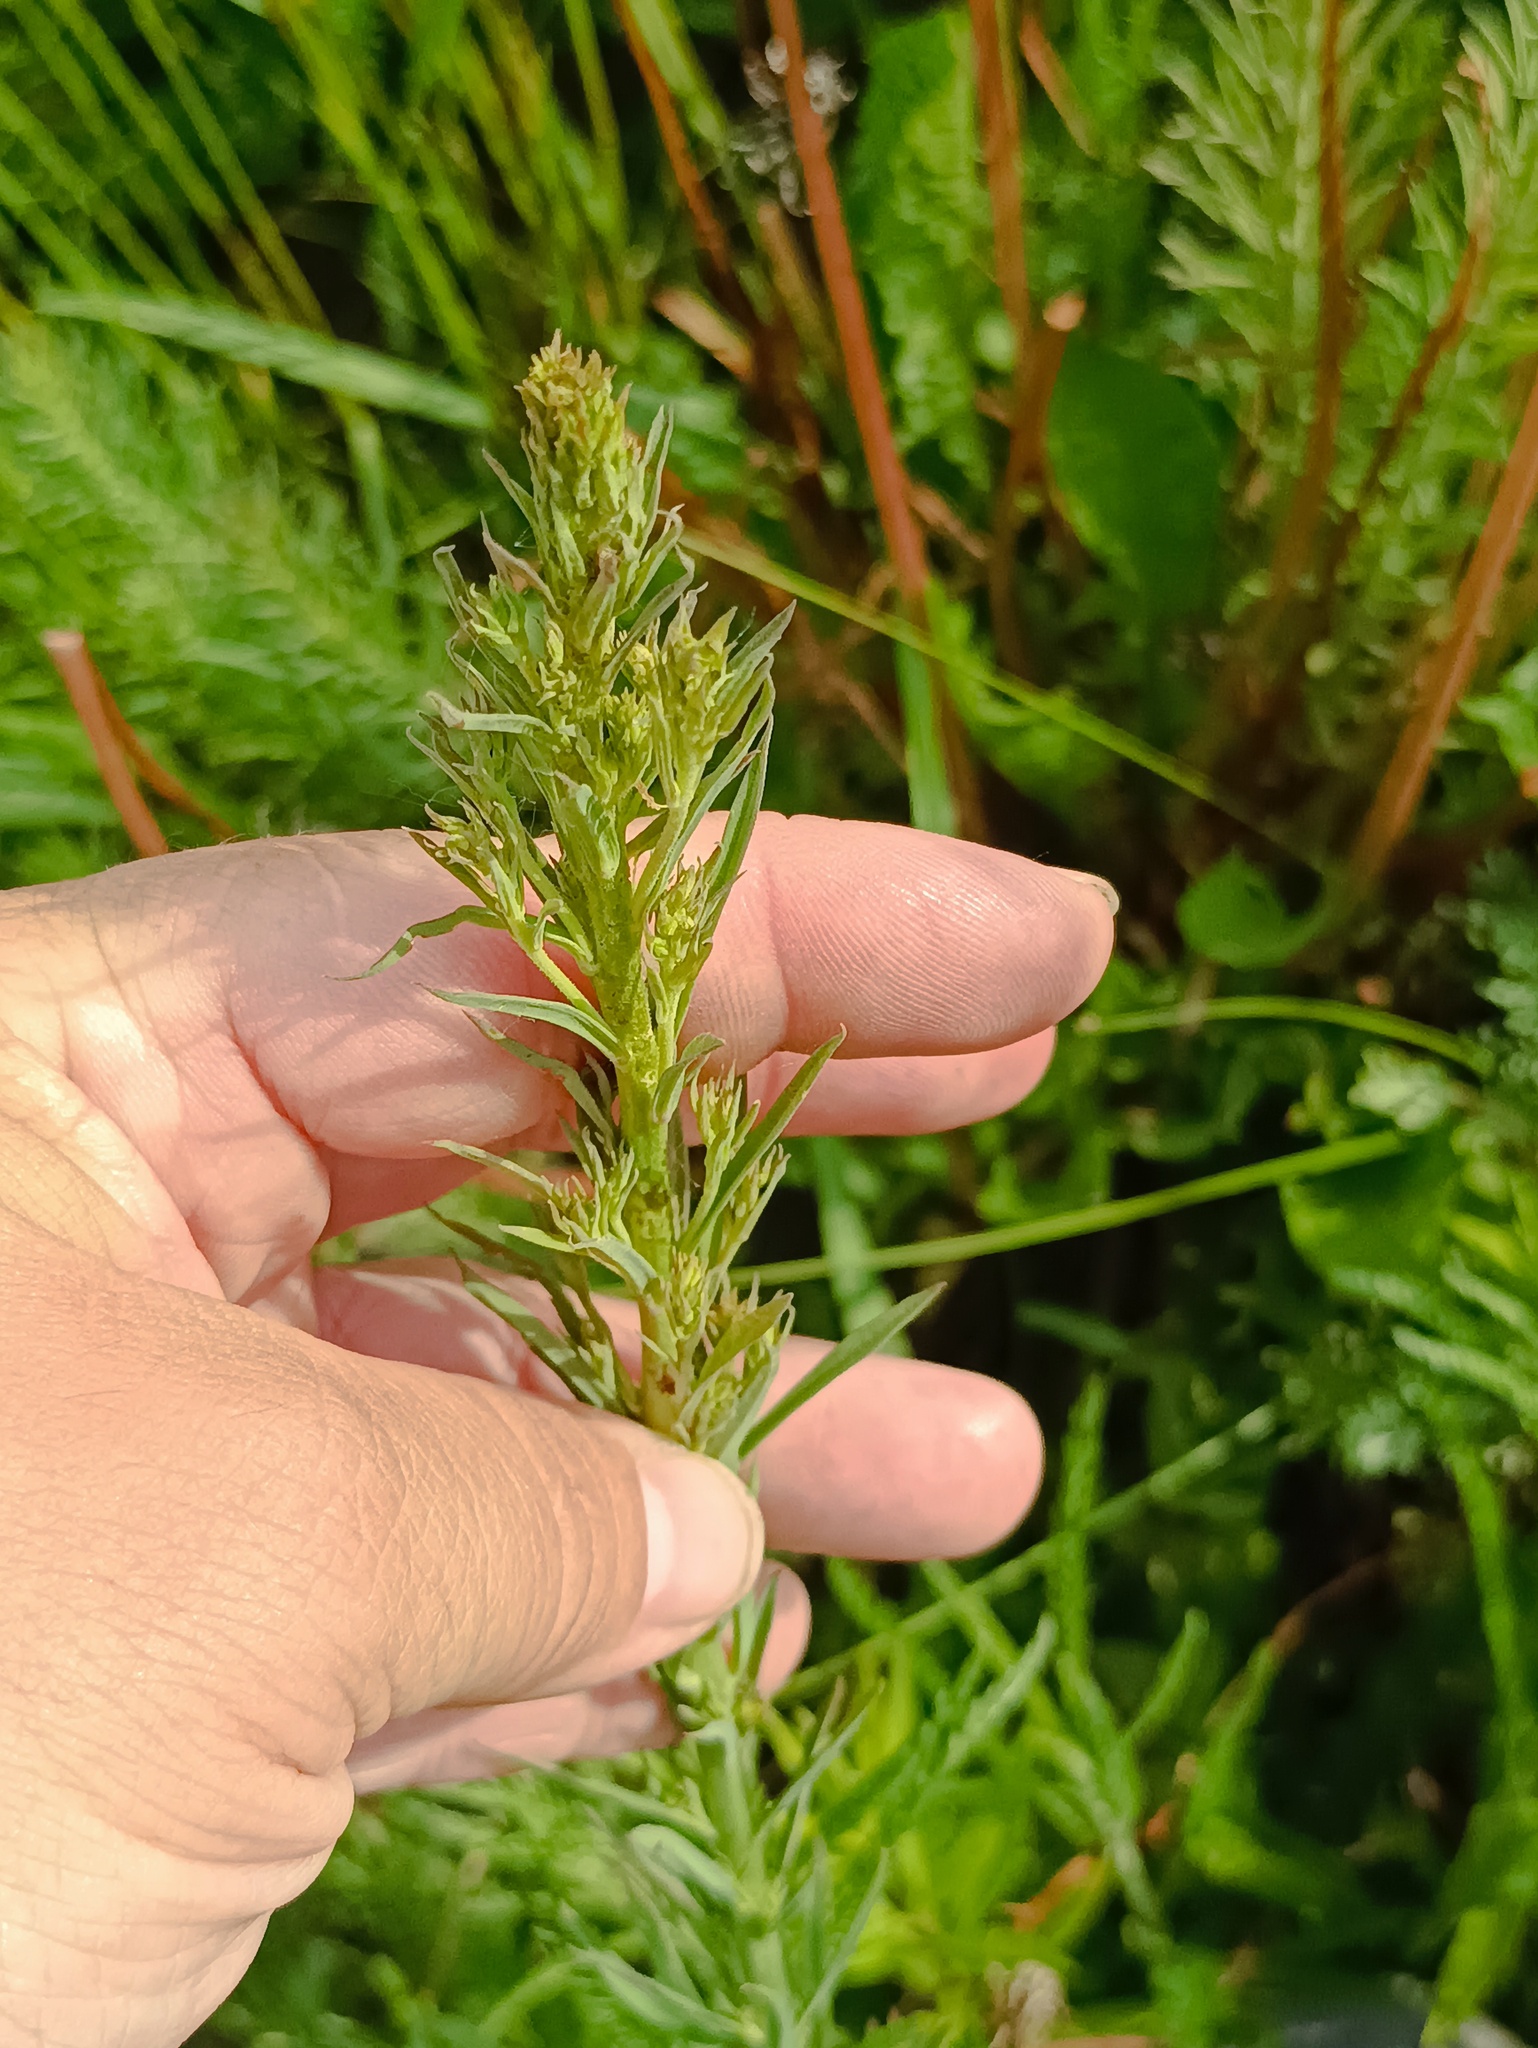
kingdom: Plantae
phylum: Tracheophyta
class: Magnoliopsida
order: Lamiales
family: Plantaginaceae
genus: Linaria
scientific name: Linaria vulgaris
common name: Butter and eggs
